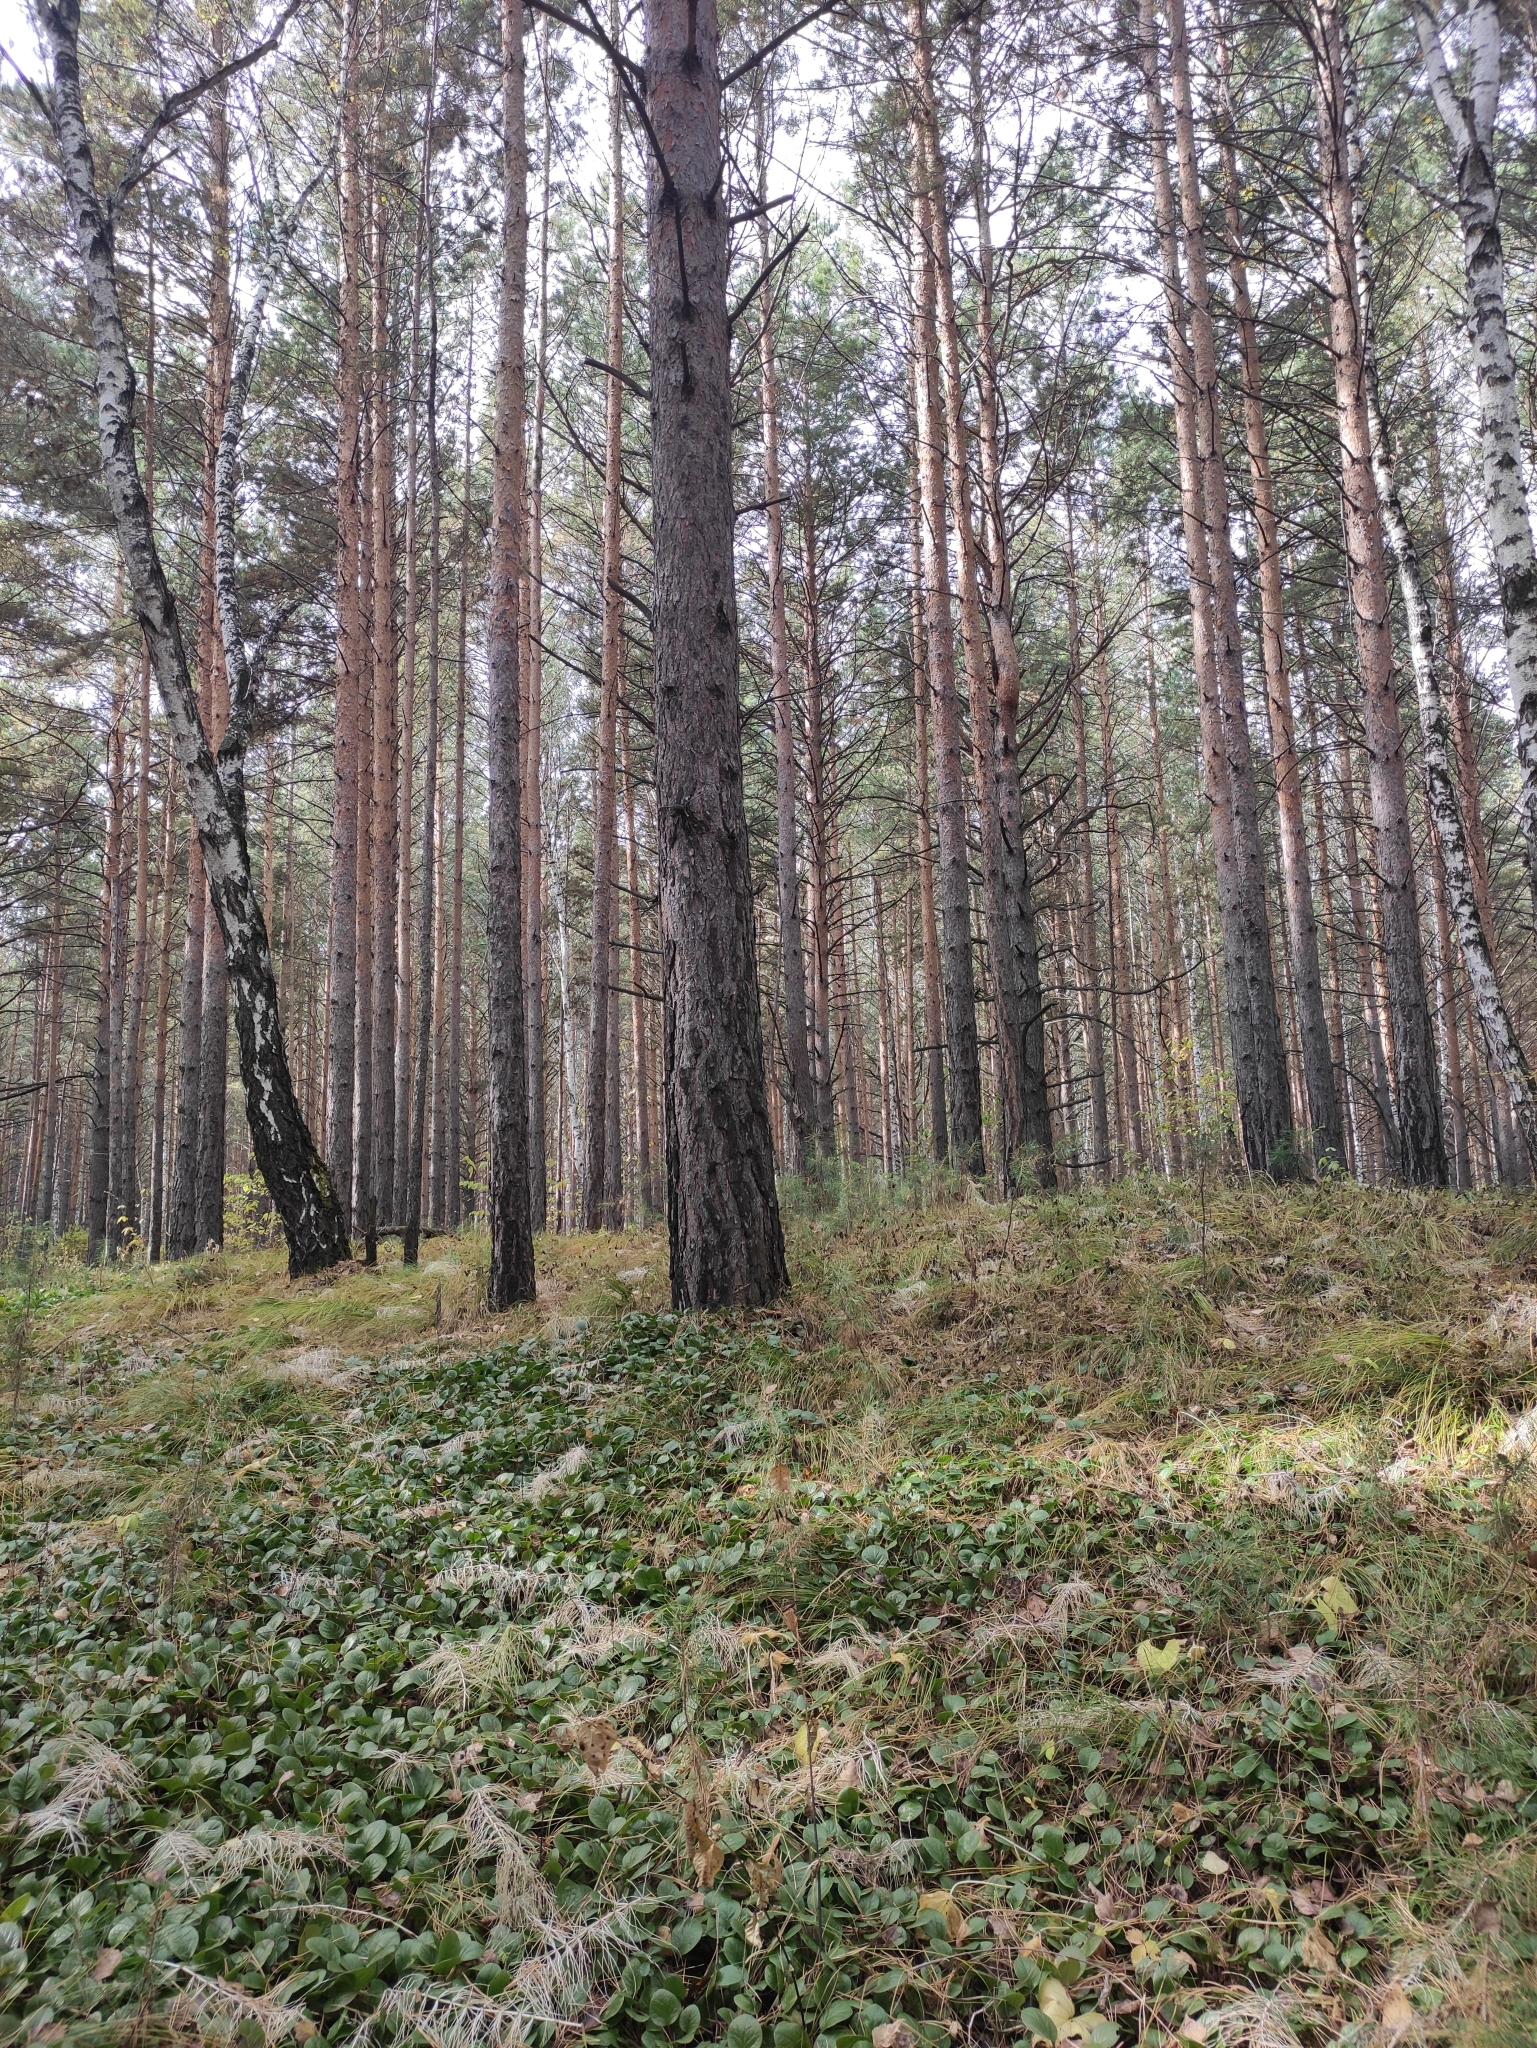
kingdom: Plantae
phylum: Tracheophyta
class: Pinopsida
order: Pinales
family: Pinaceae
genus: Pinus
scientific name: Pinus sylvestris
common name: Scots pine
